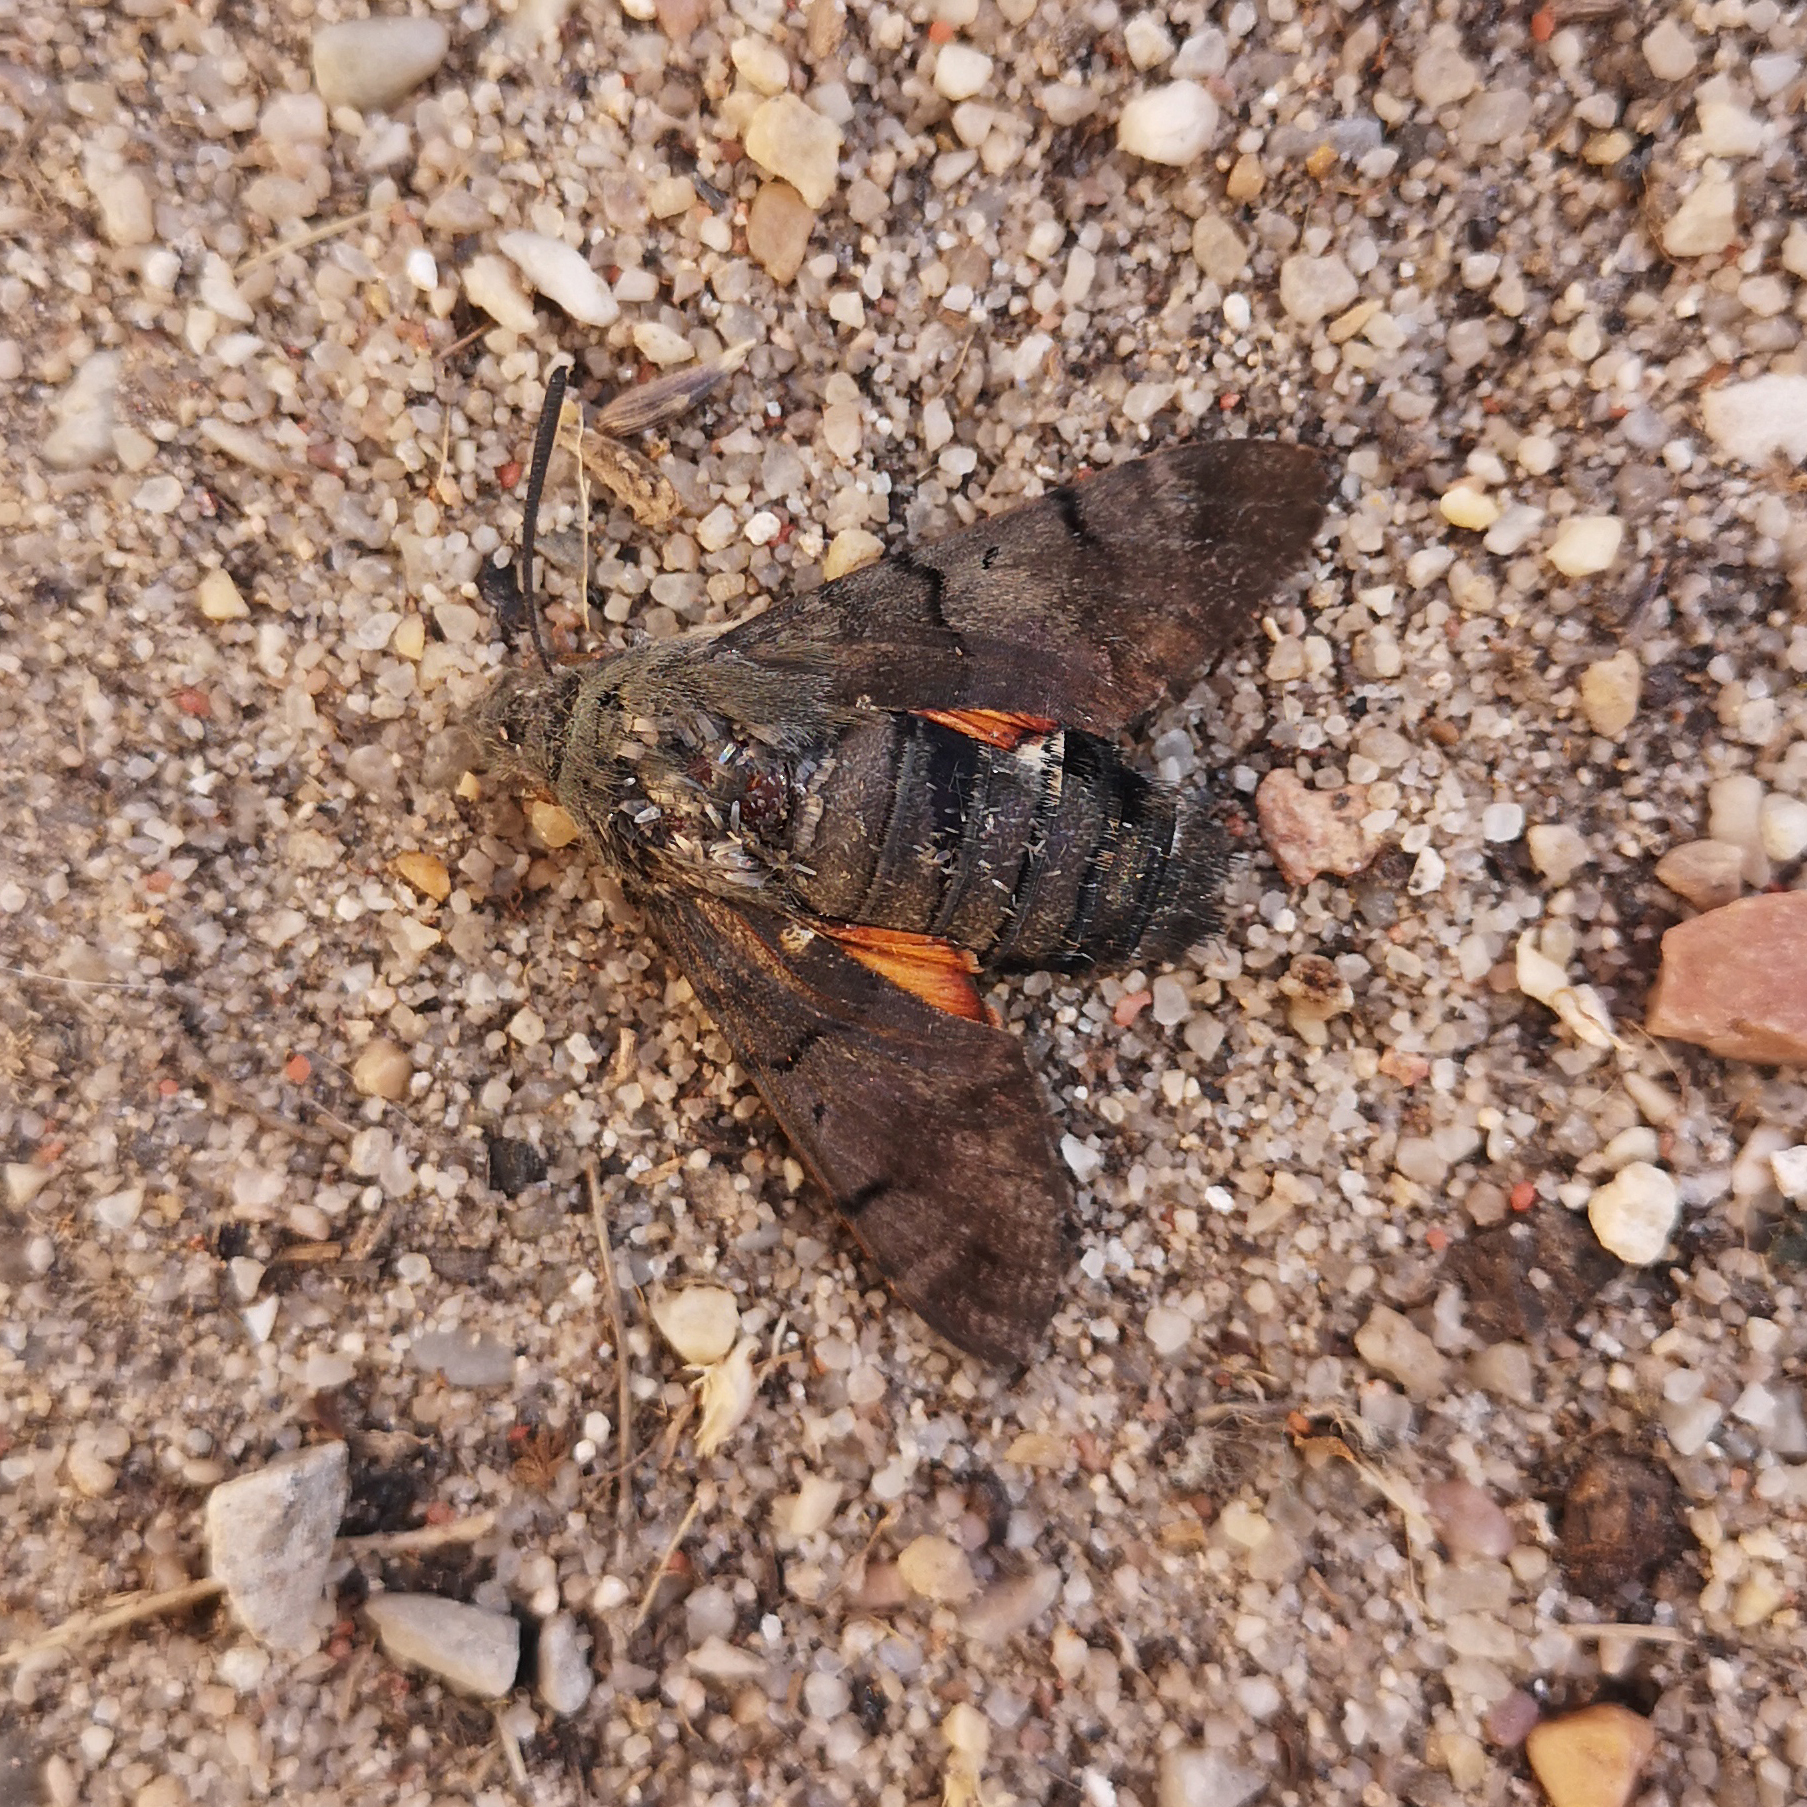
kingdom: Animalia
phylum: Arthropoda
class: Insecta
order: Lepidoptera
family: Sphingidae
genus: Macroglossum
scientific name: Macroglossum stellatarum
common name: Humming-bird hawk-moth
